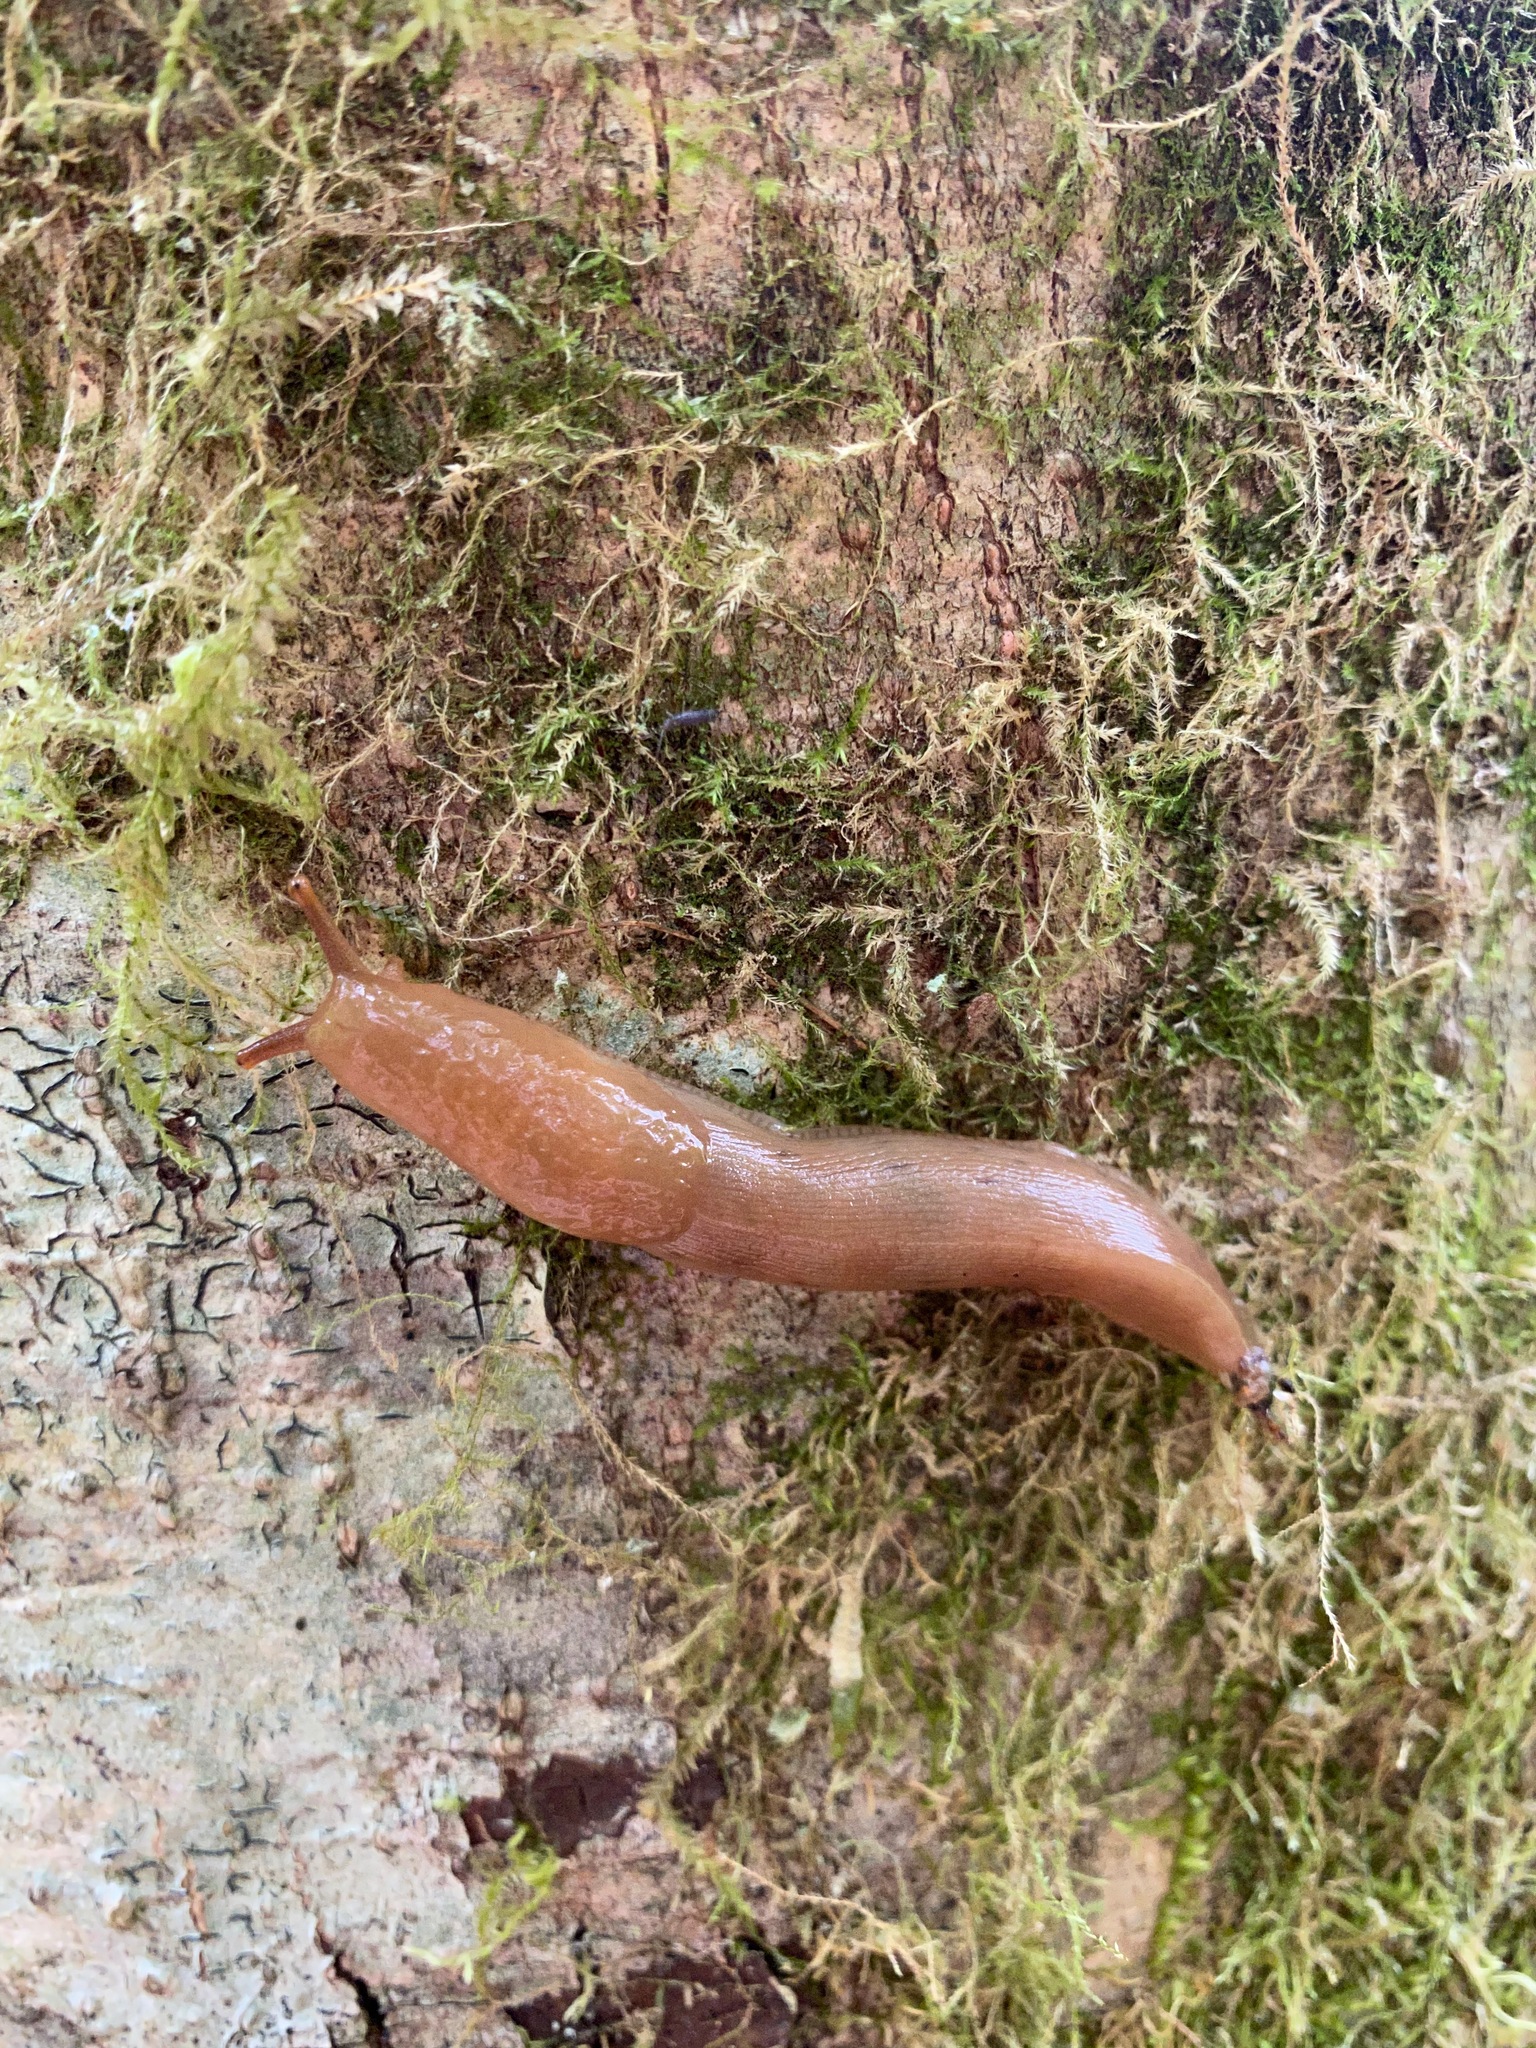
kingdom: Animalia
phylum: Mollusca
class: Gastropoda
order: Stylommatophora
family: Ariolimacidae
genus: Ariolimax
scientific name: Ariolimax columbianus
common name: Pacific banana slug
